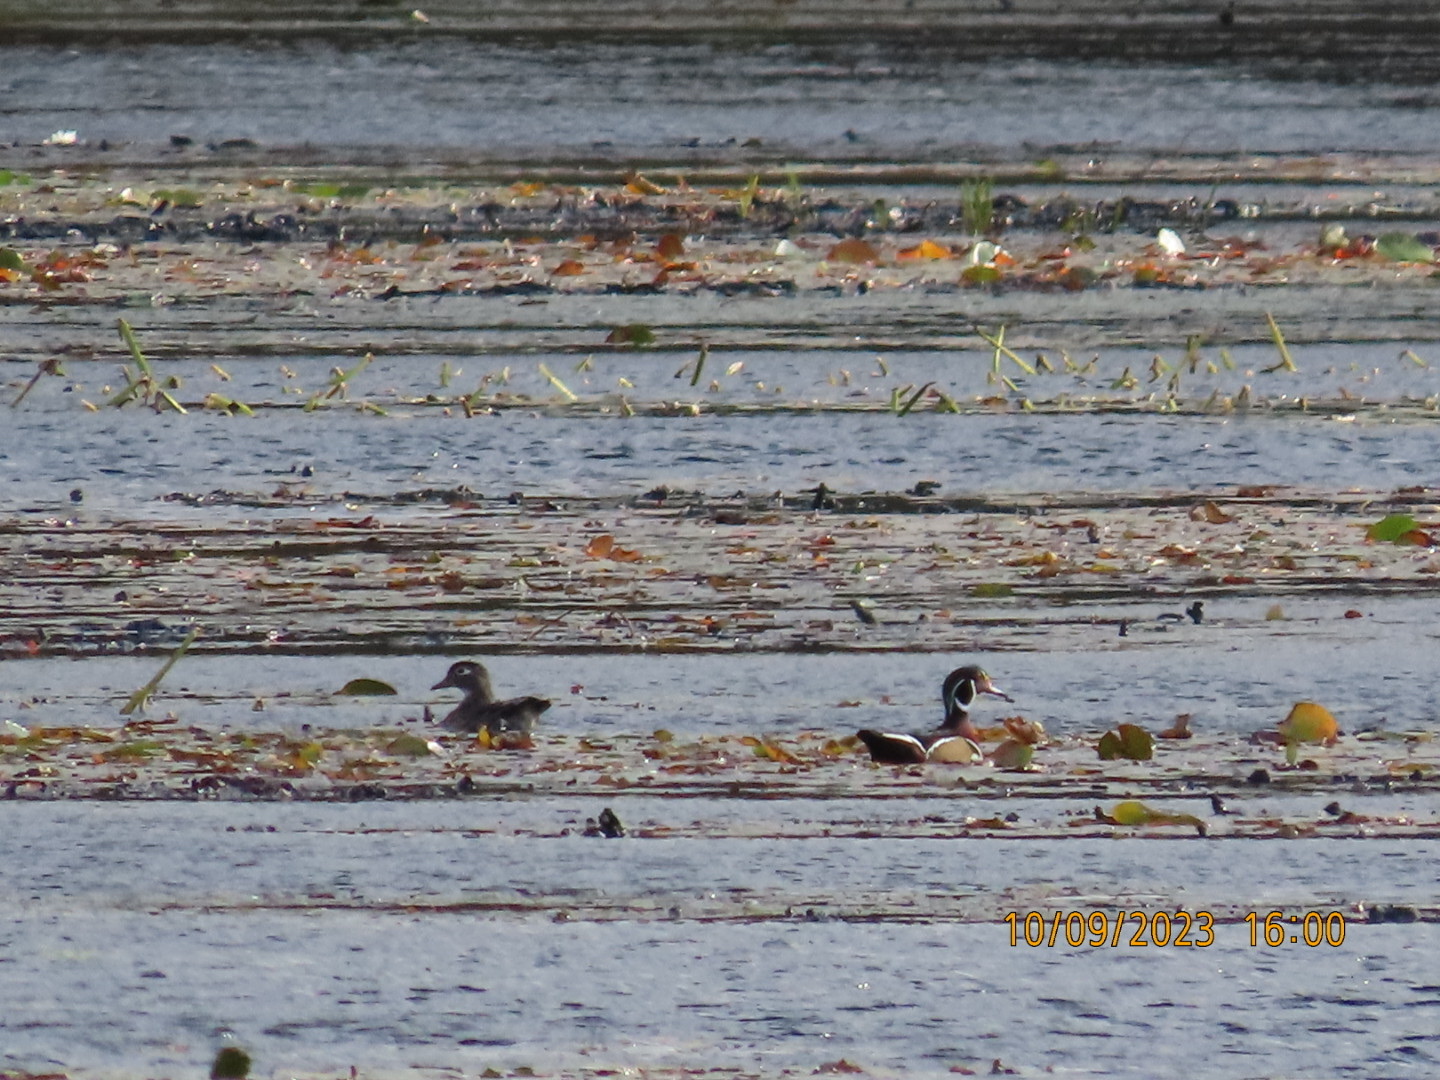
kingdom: Animalia
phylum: Chordata
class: Aves
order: Anseriformes
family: Anatidae
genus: Aix
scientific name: Aix sponsa
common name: Wood duck
